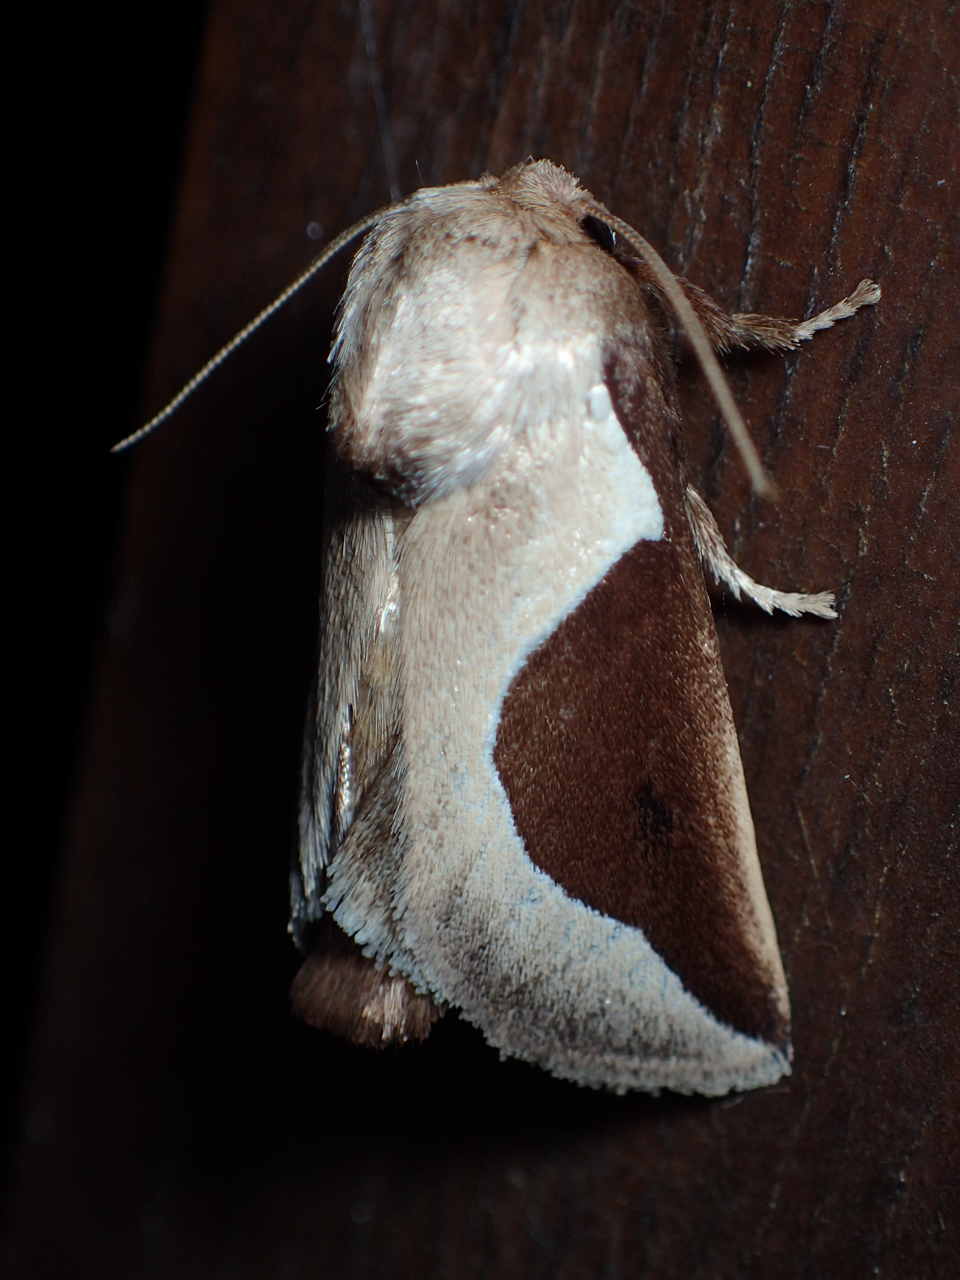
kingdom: Animalia
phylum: Arthropoda
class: Insecta
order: Lepidoptera
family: Limacodidae
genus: Prolimacodes
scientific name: Prolimacodes badia
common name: Skiff moth
